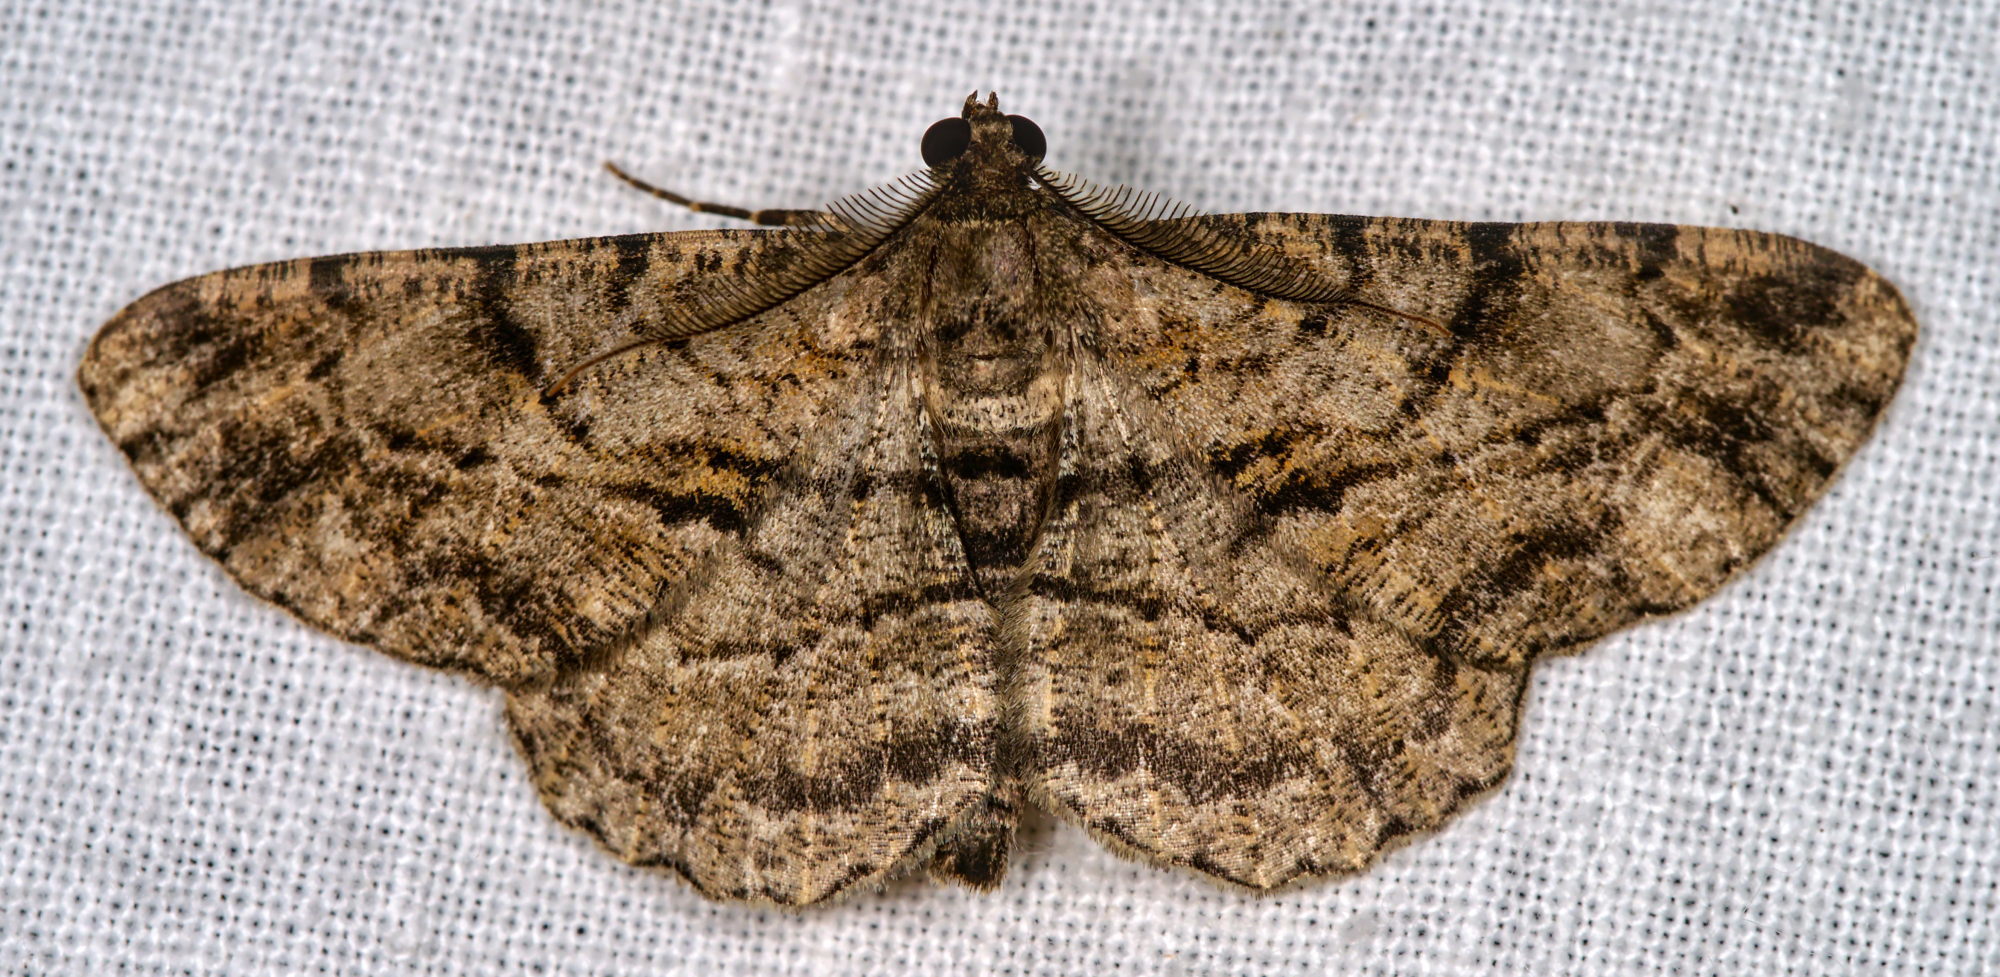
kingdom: Animalia
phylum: Arthropoda
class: Insecta
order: Lepidoptera
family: Geometridae
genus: Peribatodes
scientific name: Peribatodes rhomboidaria
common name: Willow beauty
